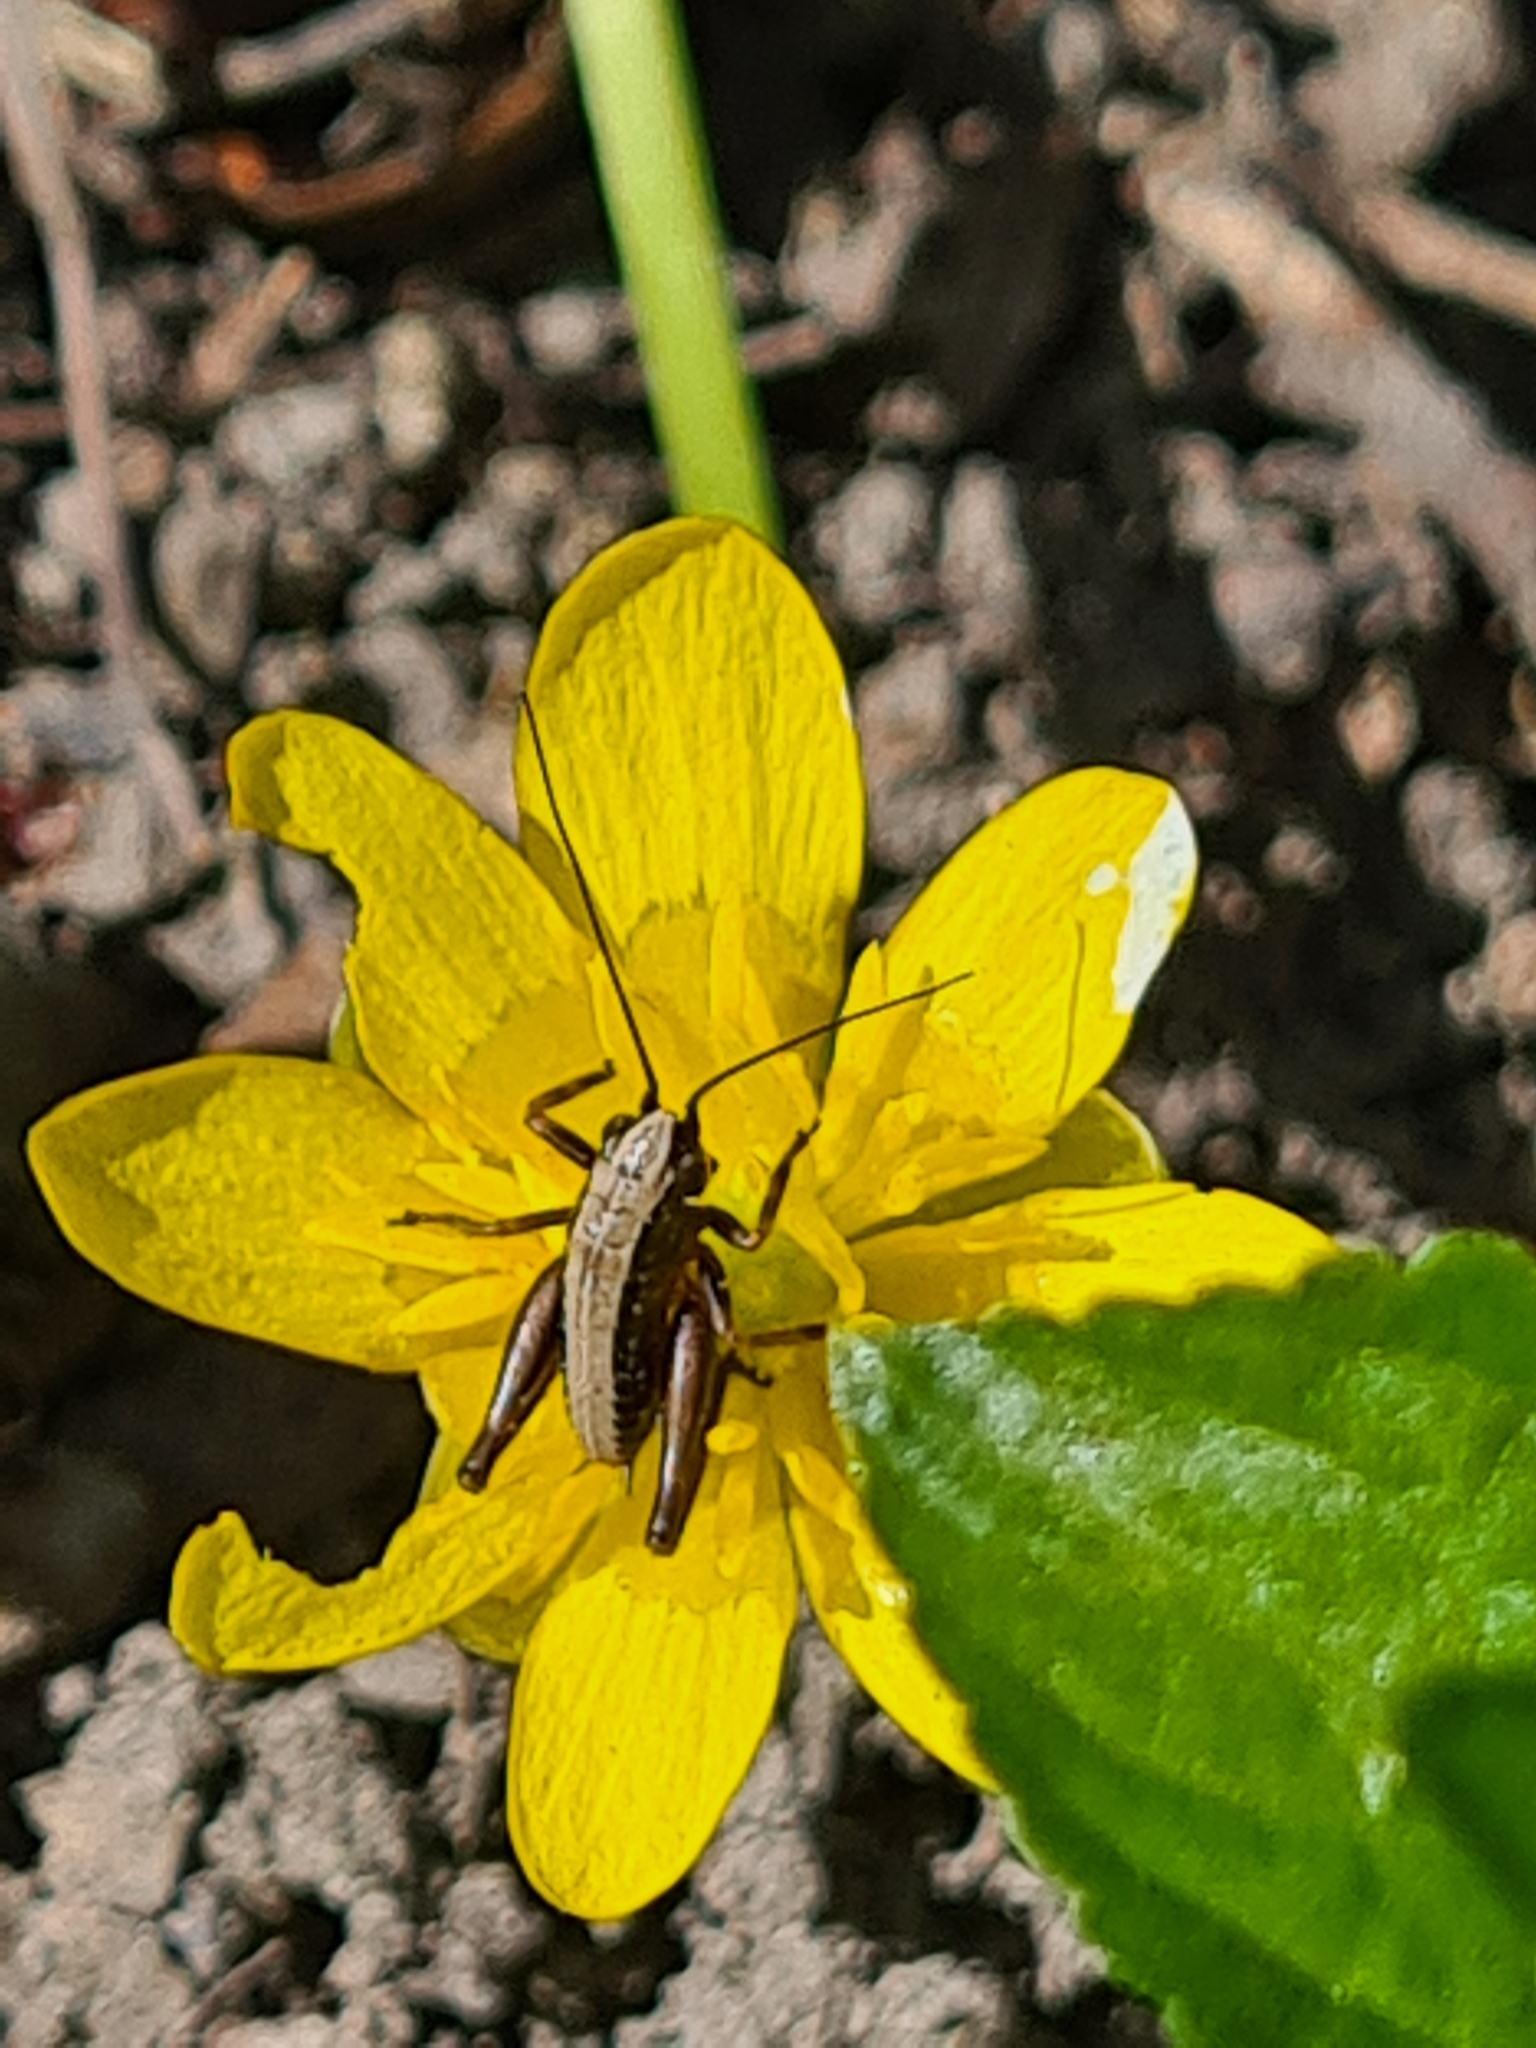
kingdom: Animalia
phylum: Arthropoda
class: Insecta
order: Orthoptera
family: Tettigoniidae
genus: Pholidoptera
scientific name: Pholidoptera griseoaptera
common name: Dark bush-cricket
